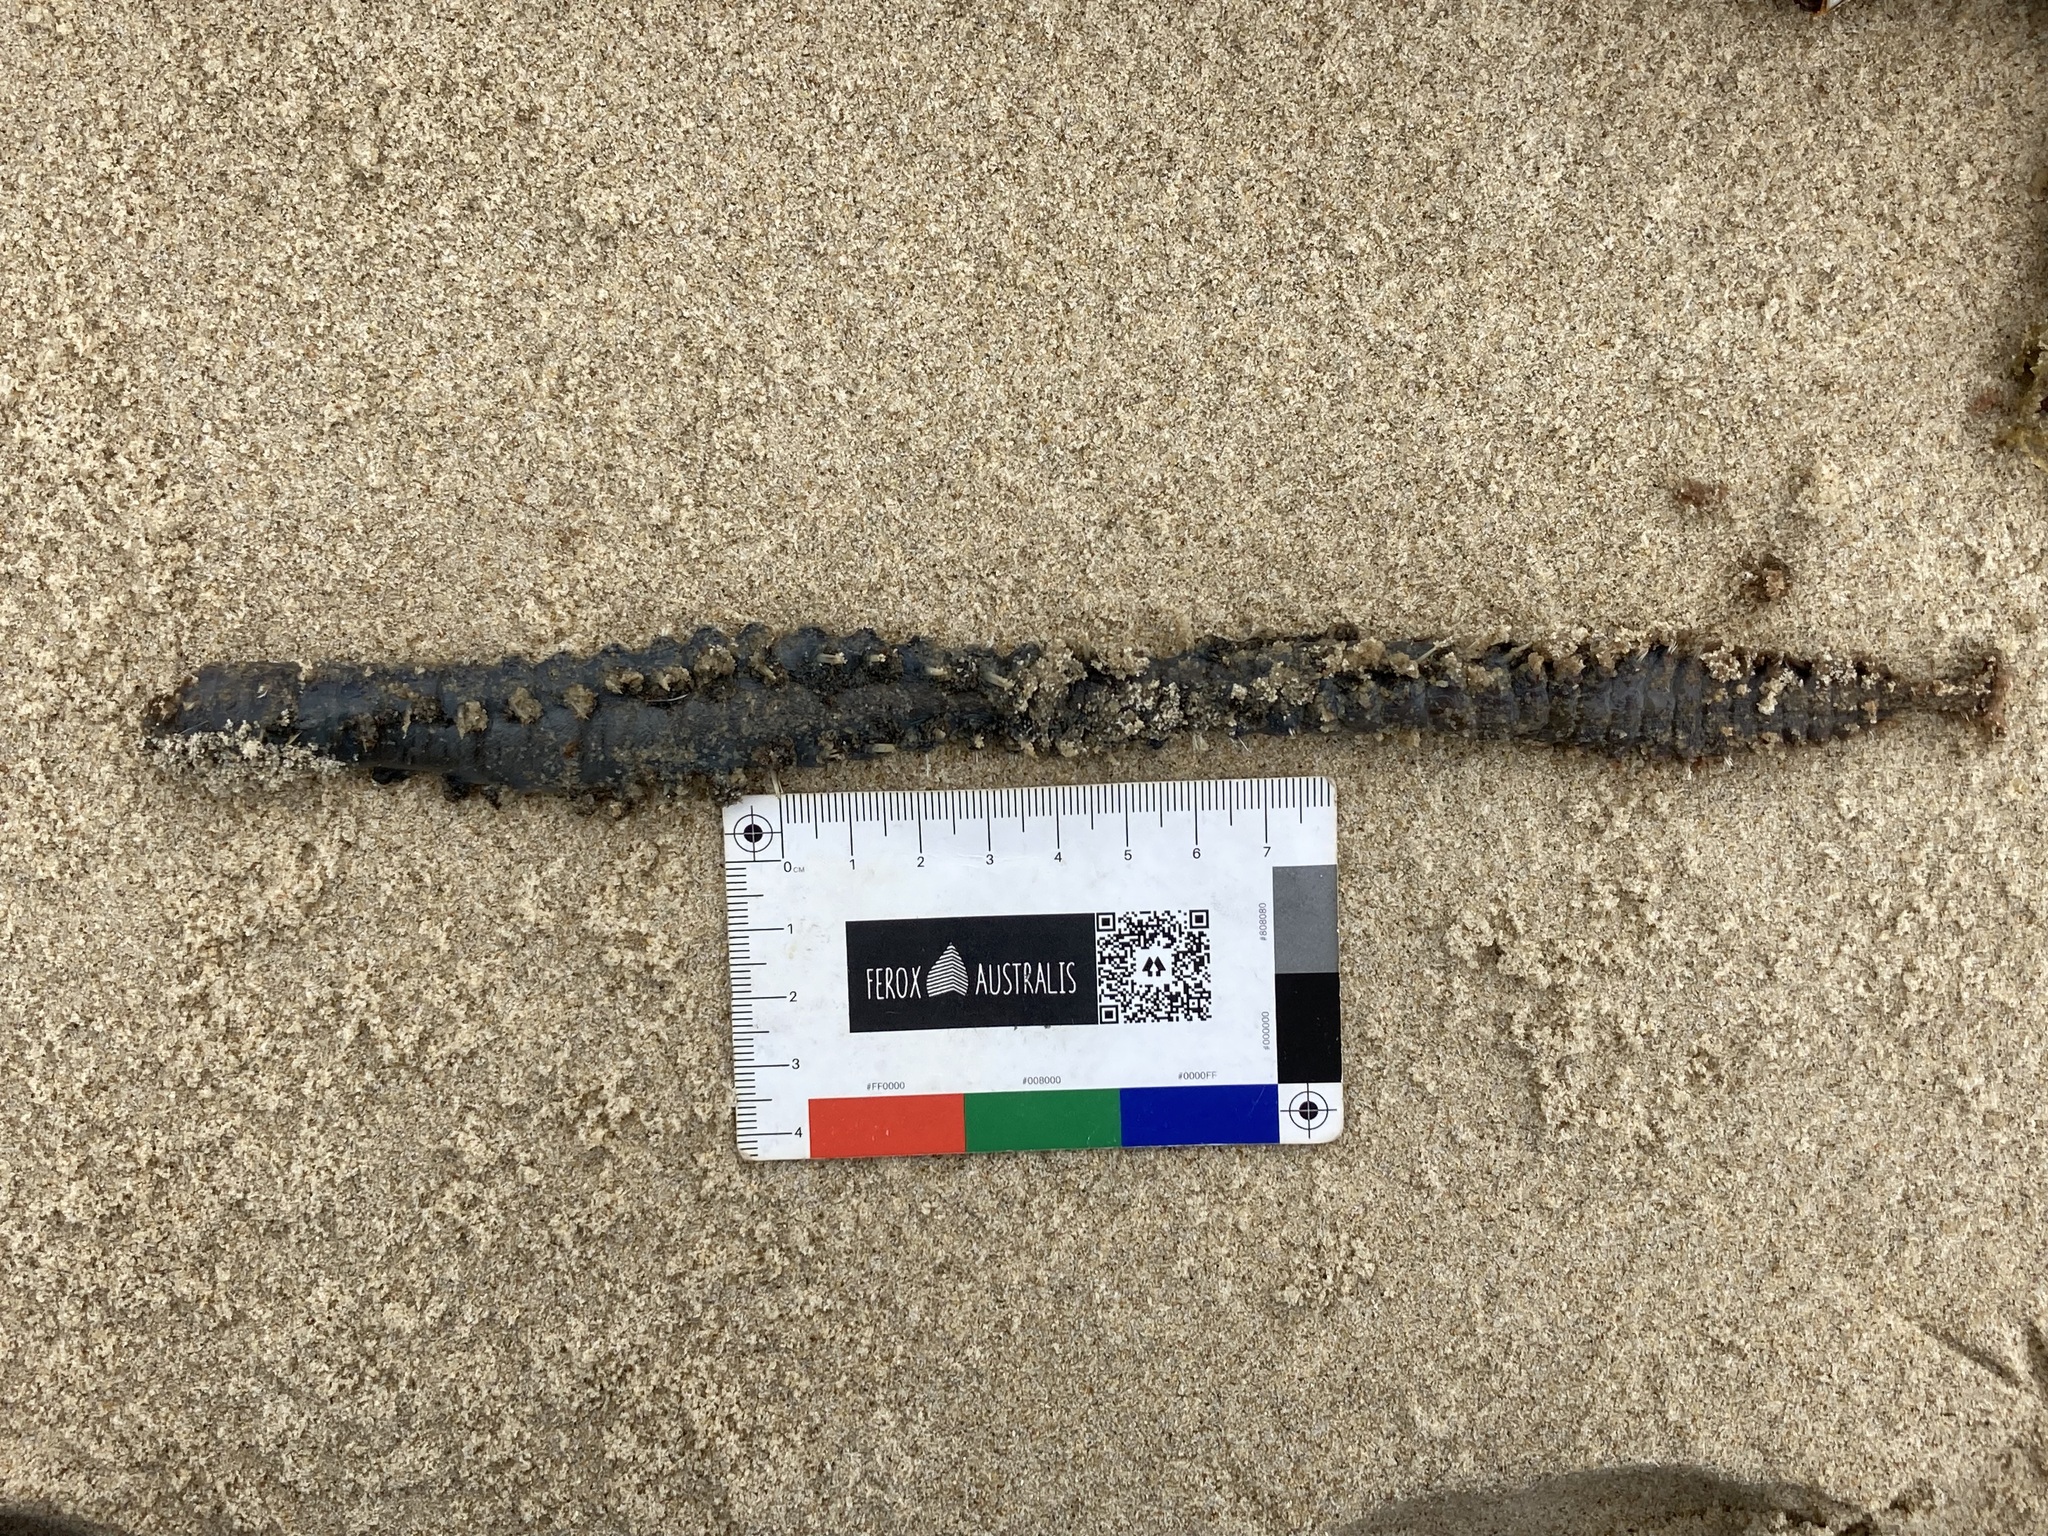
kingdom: Animalia
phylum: Annelida
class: Polychaeta
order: Amphinomida
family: Amphinomidae
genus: Amphinome
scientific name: Amphinome rostrata
